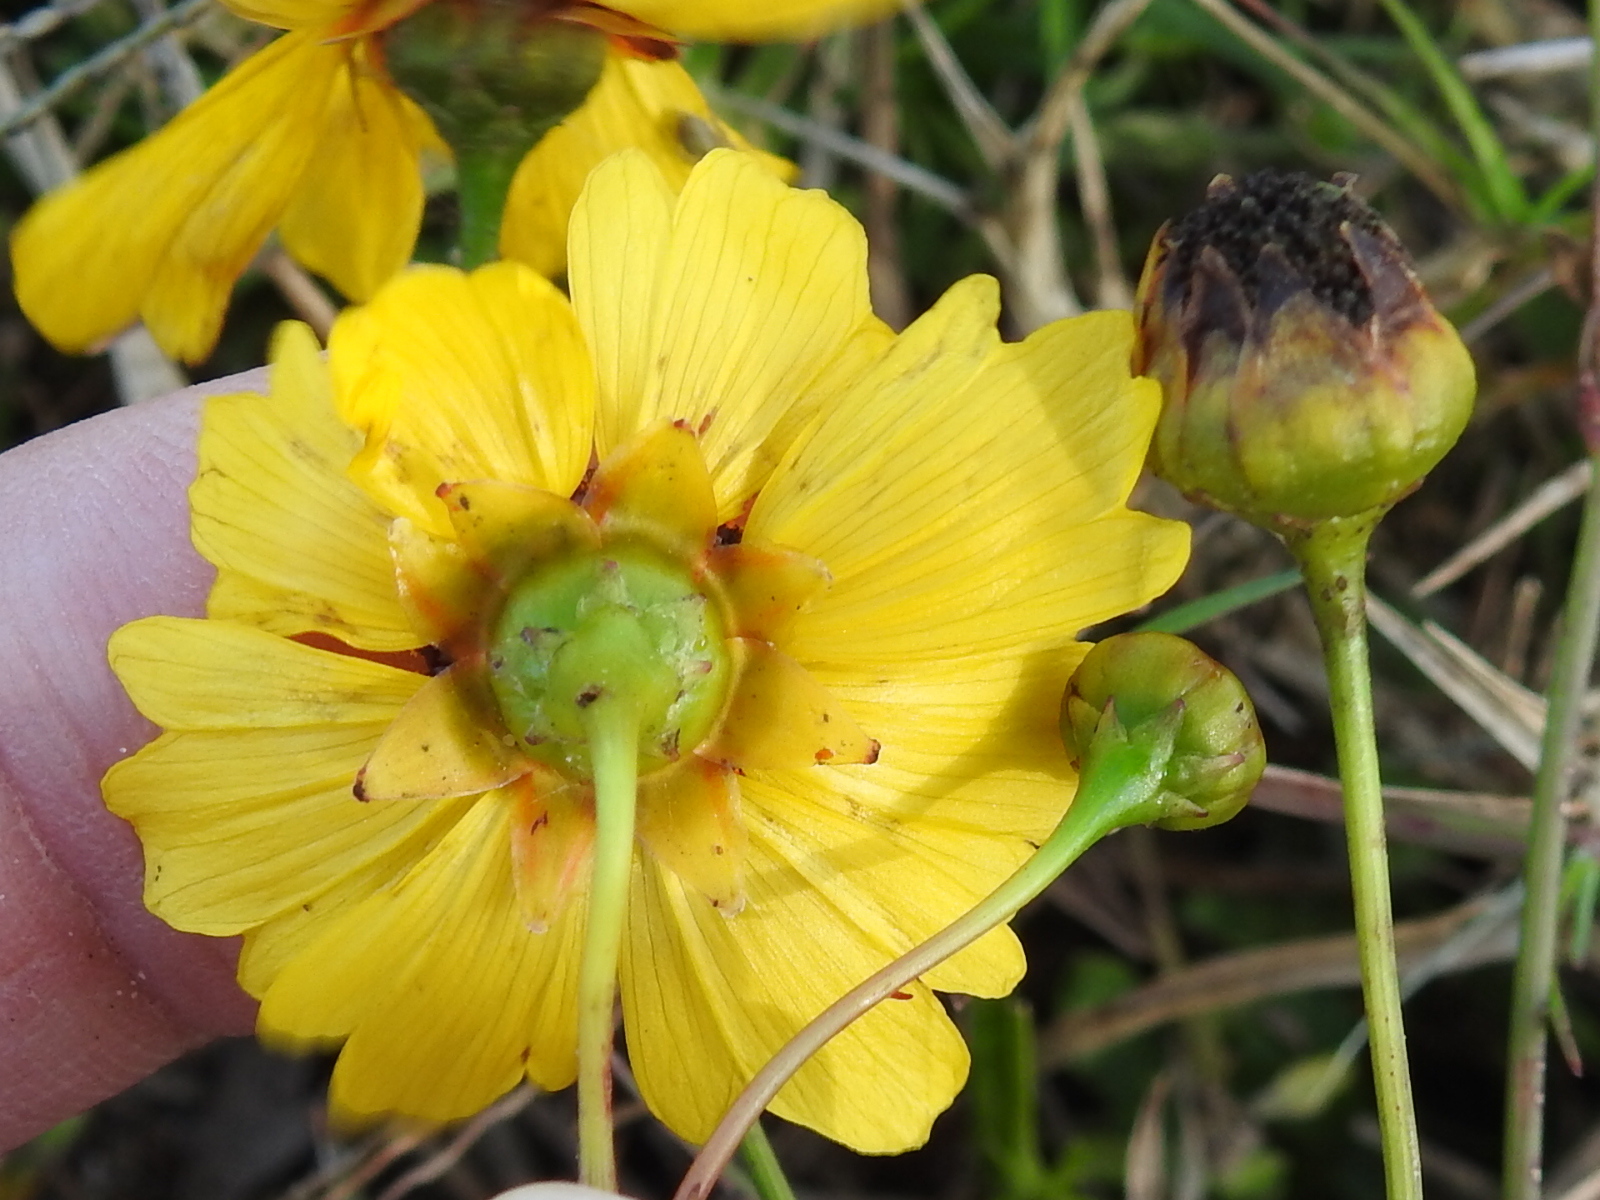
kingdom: Plantae
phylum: Tracheophyta
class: Magnoliopsida
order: Asterales
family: Asteraceae
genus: Coreopsis
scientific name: Coreopsis leavenworthii
